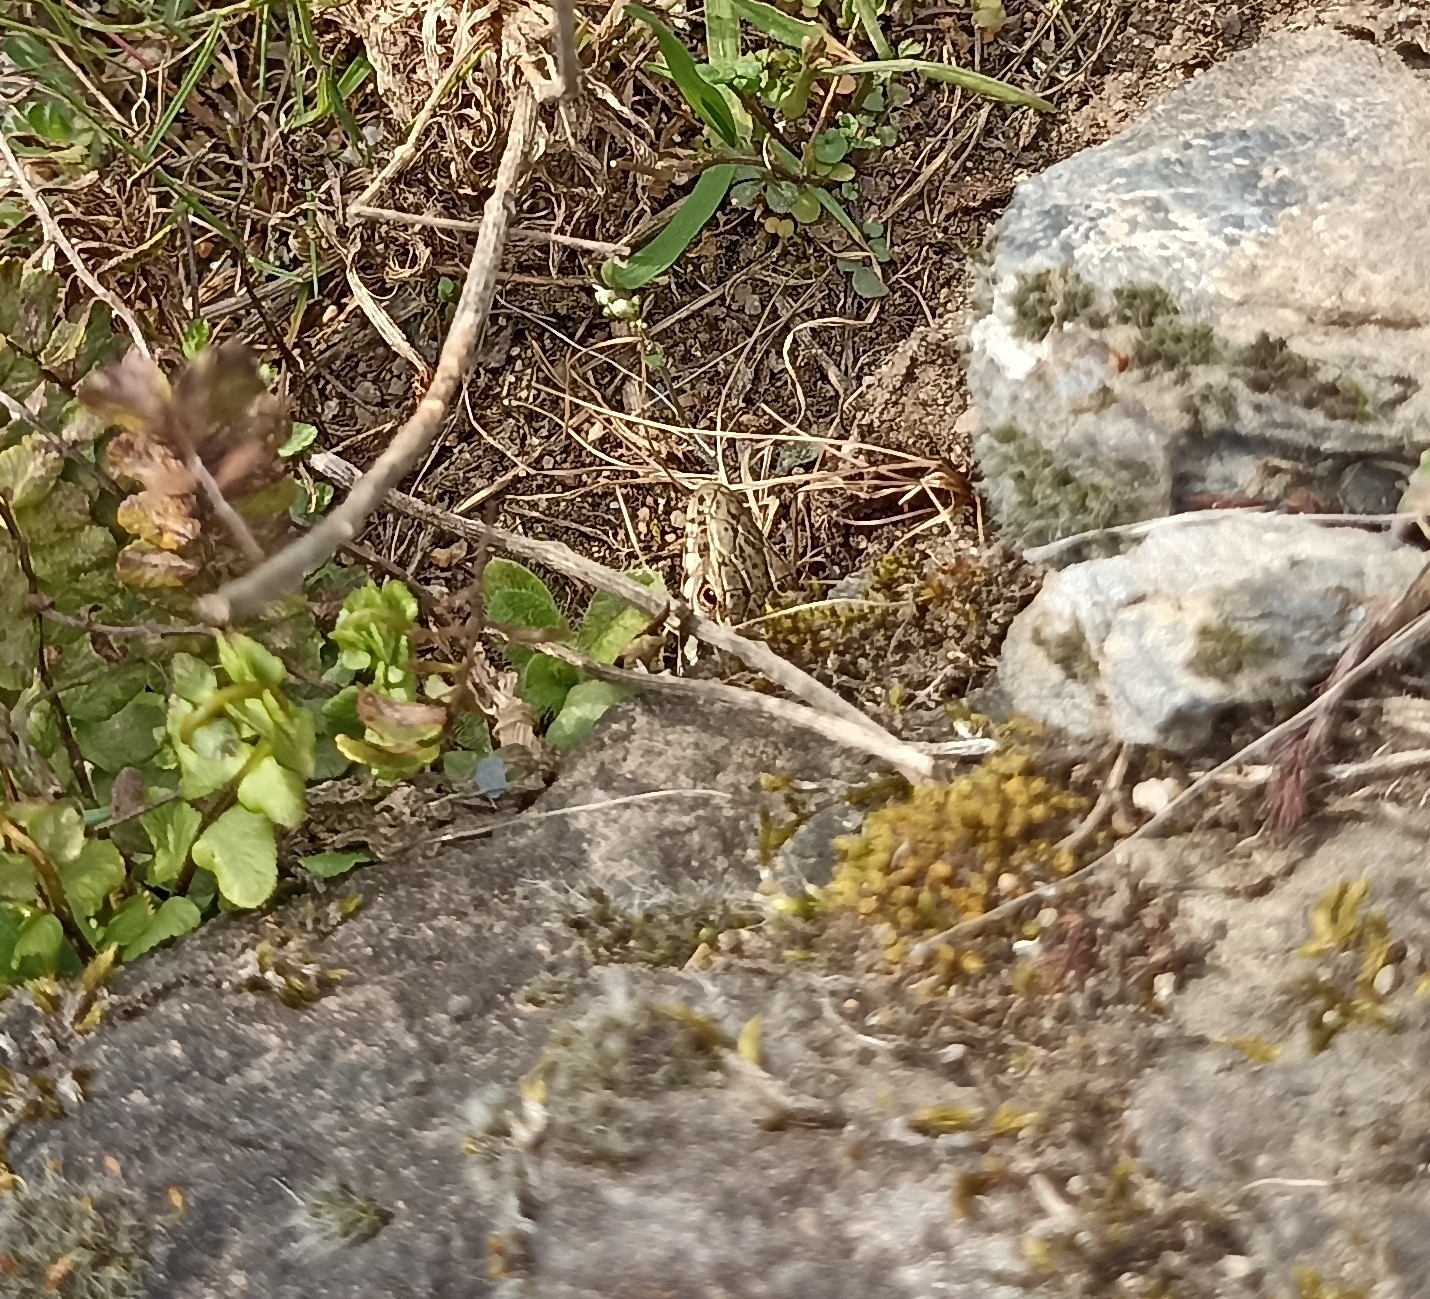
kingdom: Animalia
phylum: Chordata
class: Squamata
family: Lacertidae
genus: Podarcis
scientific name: Podarcis muralis
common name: Common wall lizard
